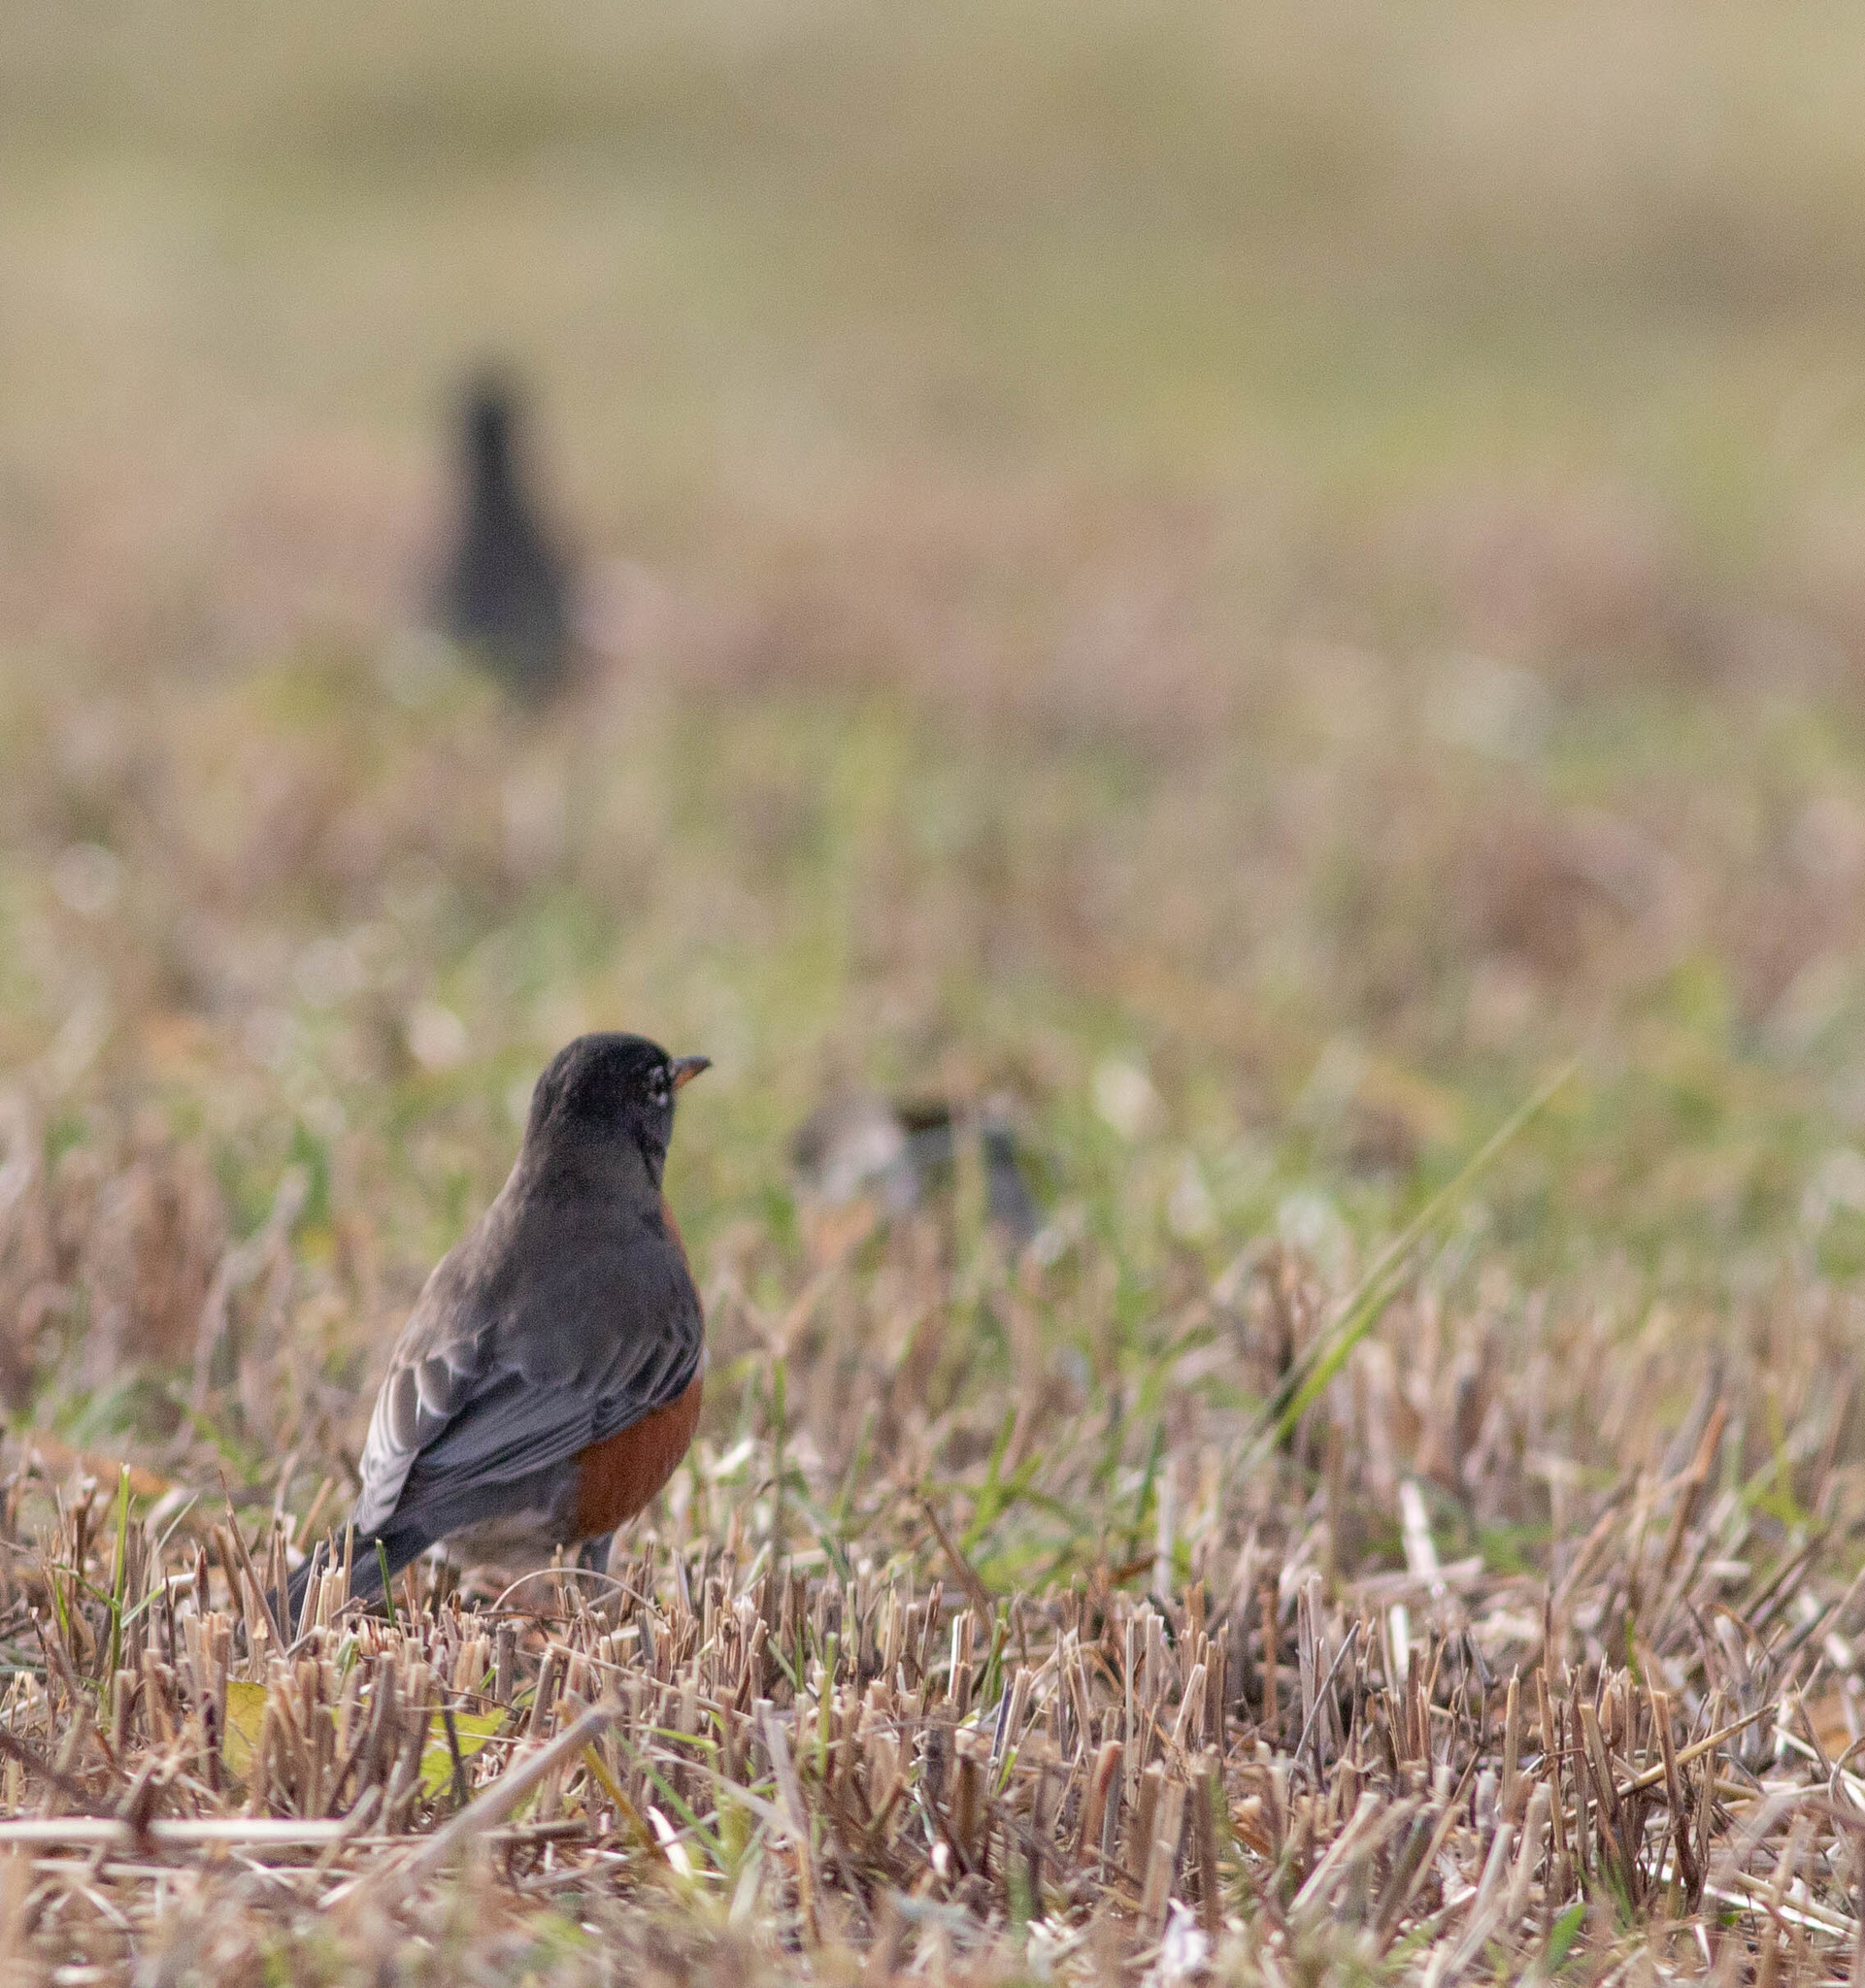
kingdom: Animalia
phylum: Chordata
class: Aves
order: Passeriformes
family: Turdidae
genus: Turdus
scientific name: Turdus migratorius
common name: American robin
